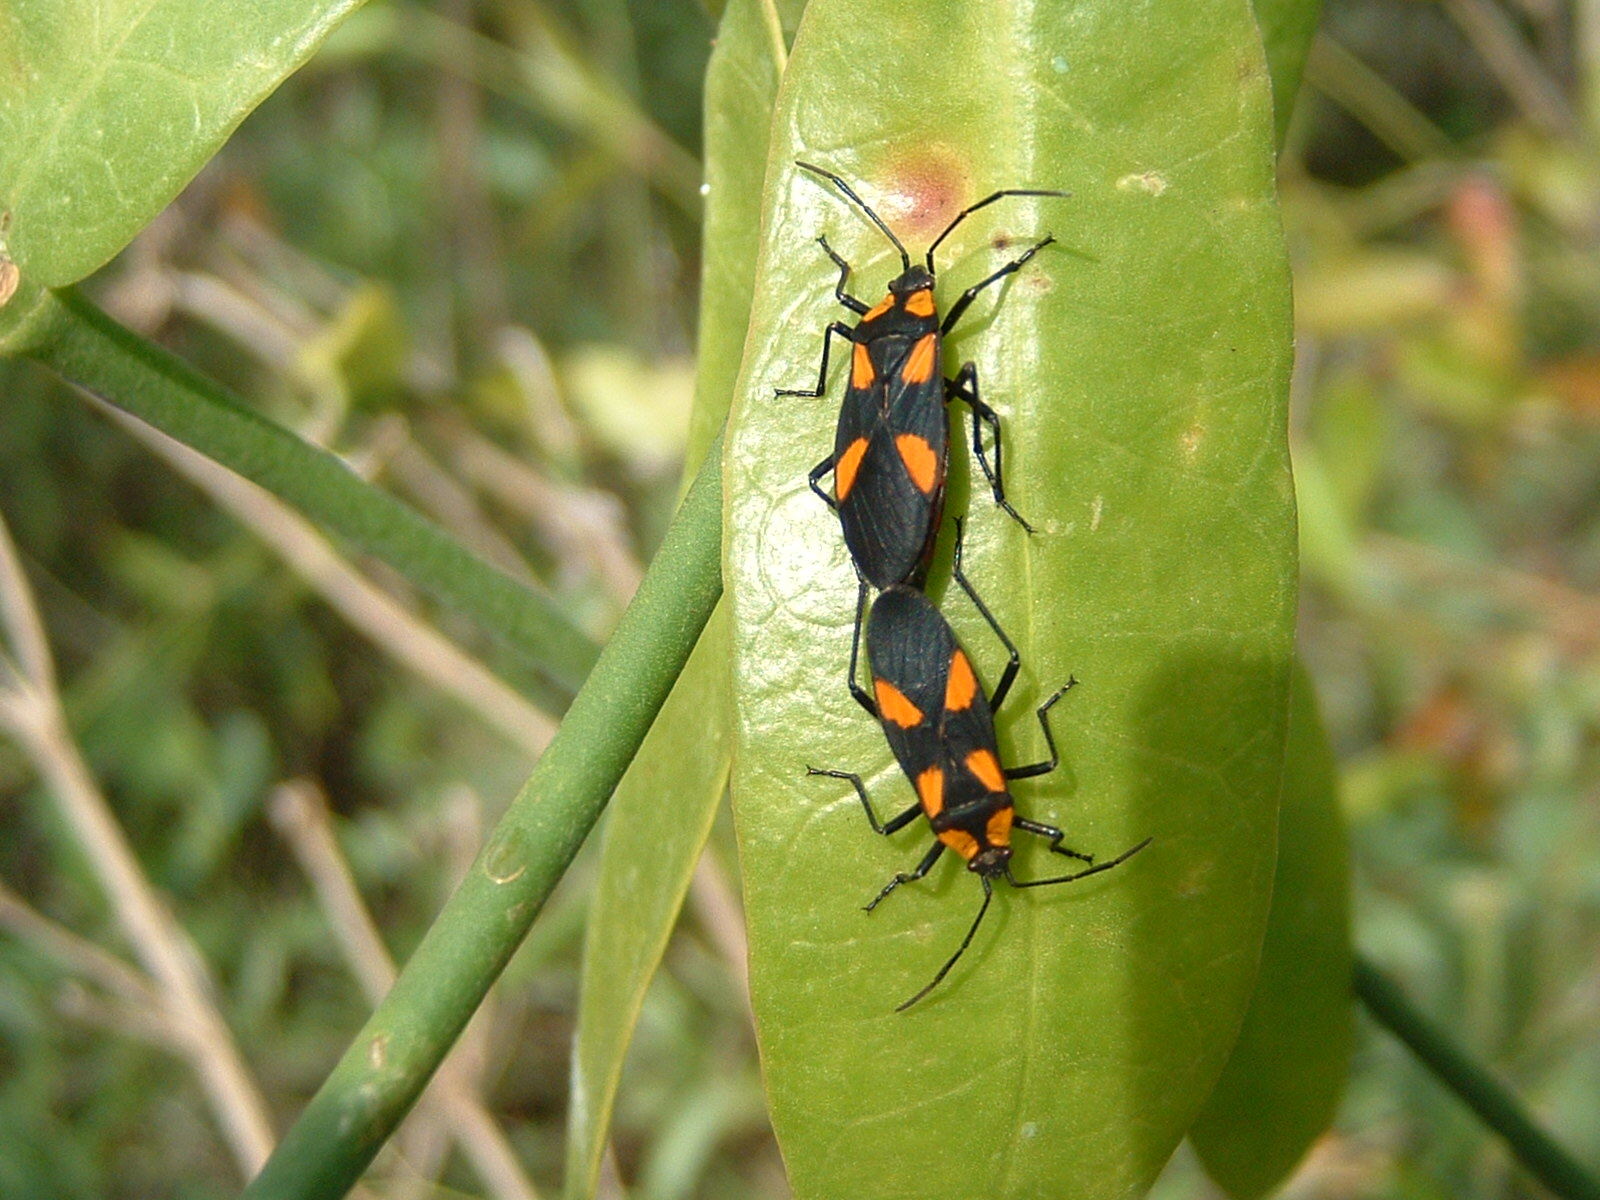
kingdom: Animalia
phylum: Arthropoda
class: Insecta
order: Hemiptera
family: Lygaeidae
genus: Oncopeltus
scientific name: Oncopeltus cayensis
